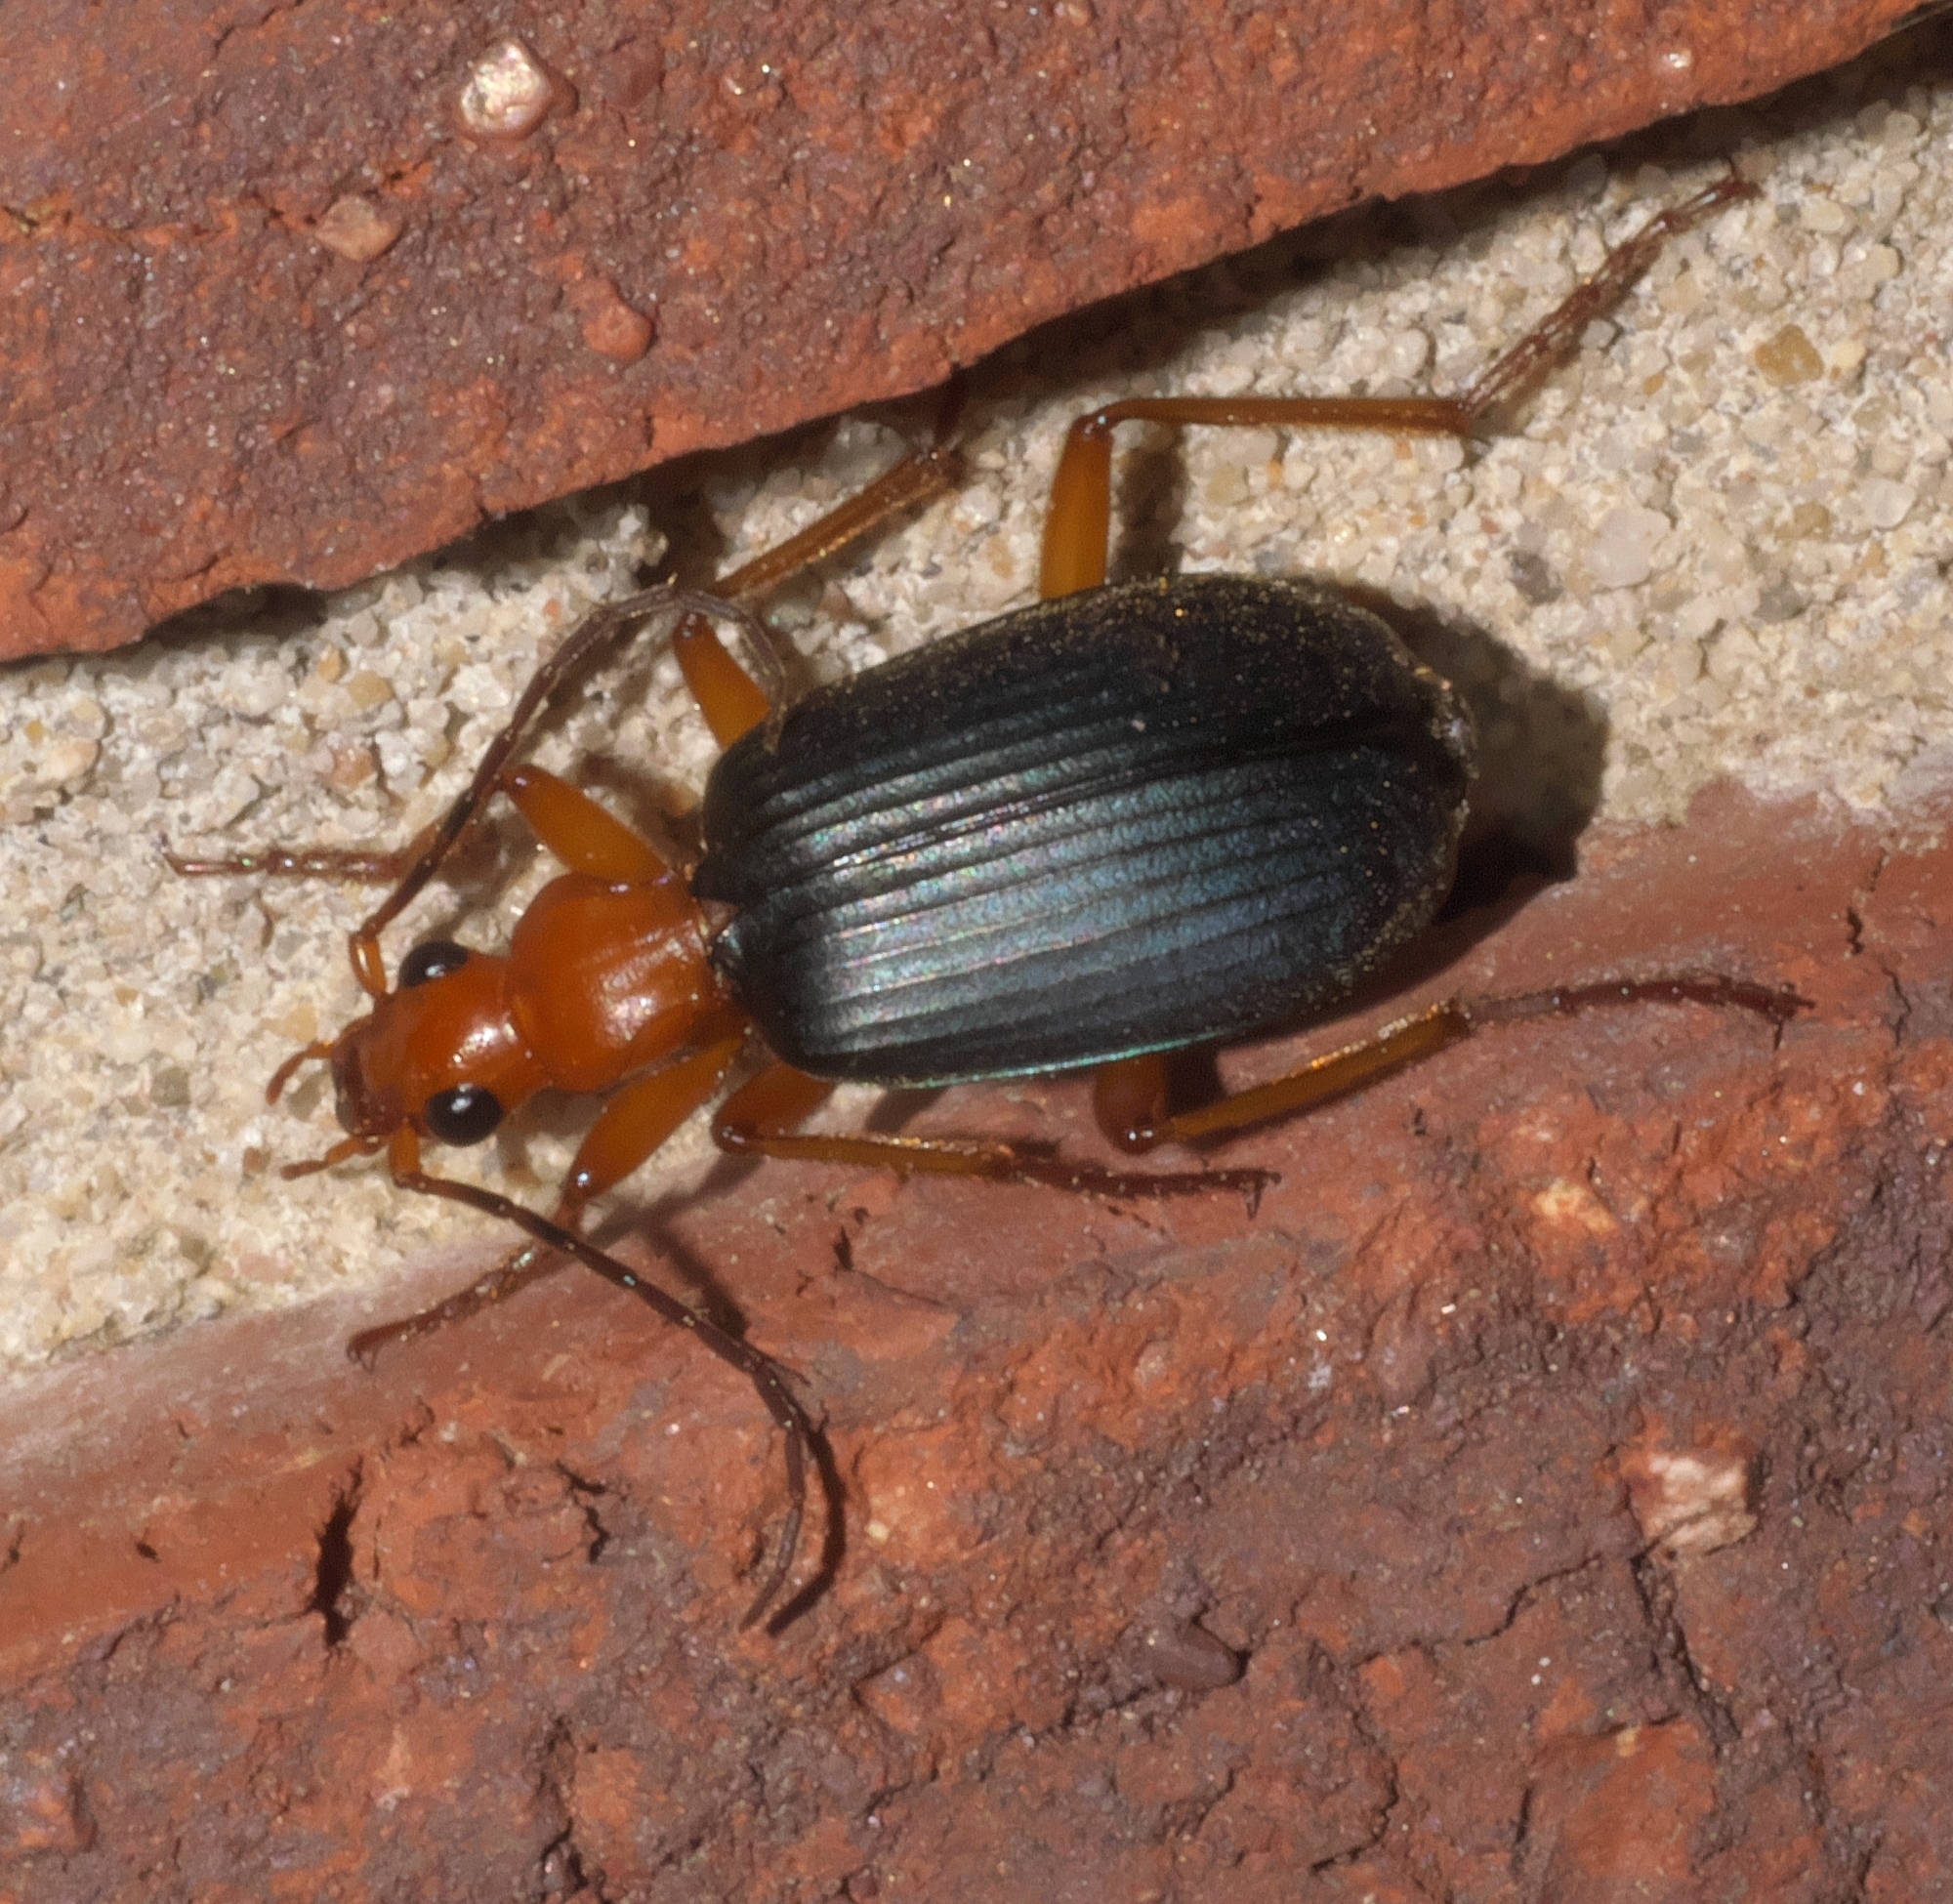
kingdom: Animalia
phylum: Arthropoda
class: Insecta
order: Coleoptera
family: Carabidae
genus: Brachinus
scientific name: Brachinus
